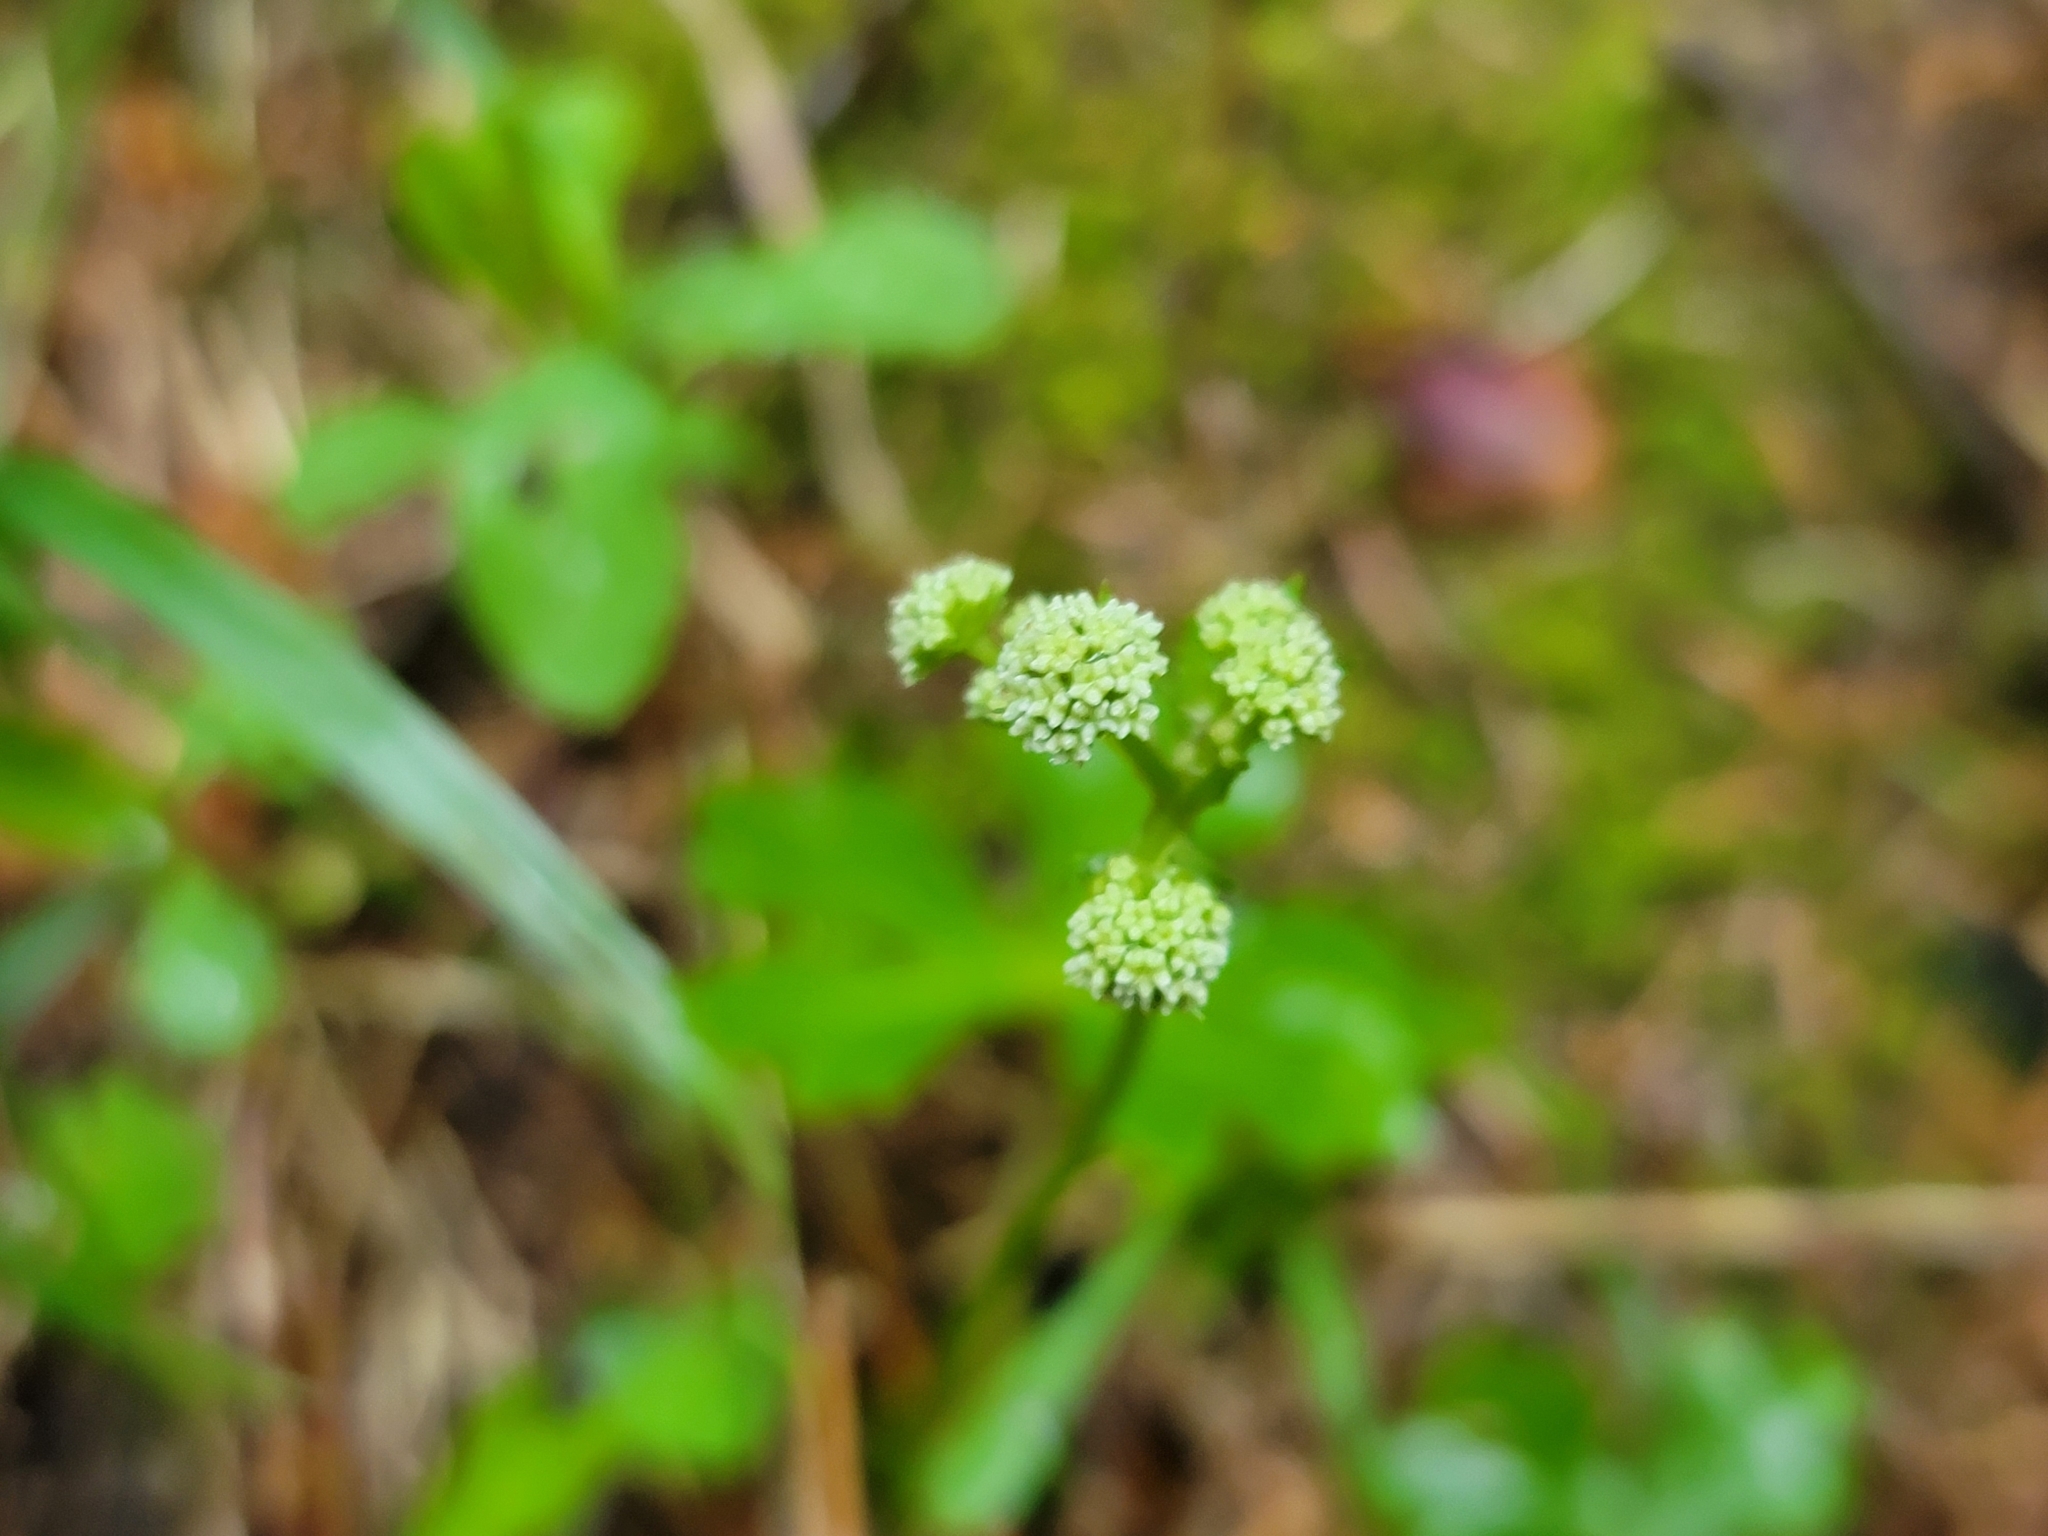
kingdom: Plantae
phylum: Tracheophyta
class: Magnoliopsida
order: Apiales
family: Apiaceae
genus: Sanicula
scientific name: Sanicula europaea
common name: Sanicle
